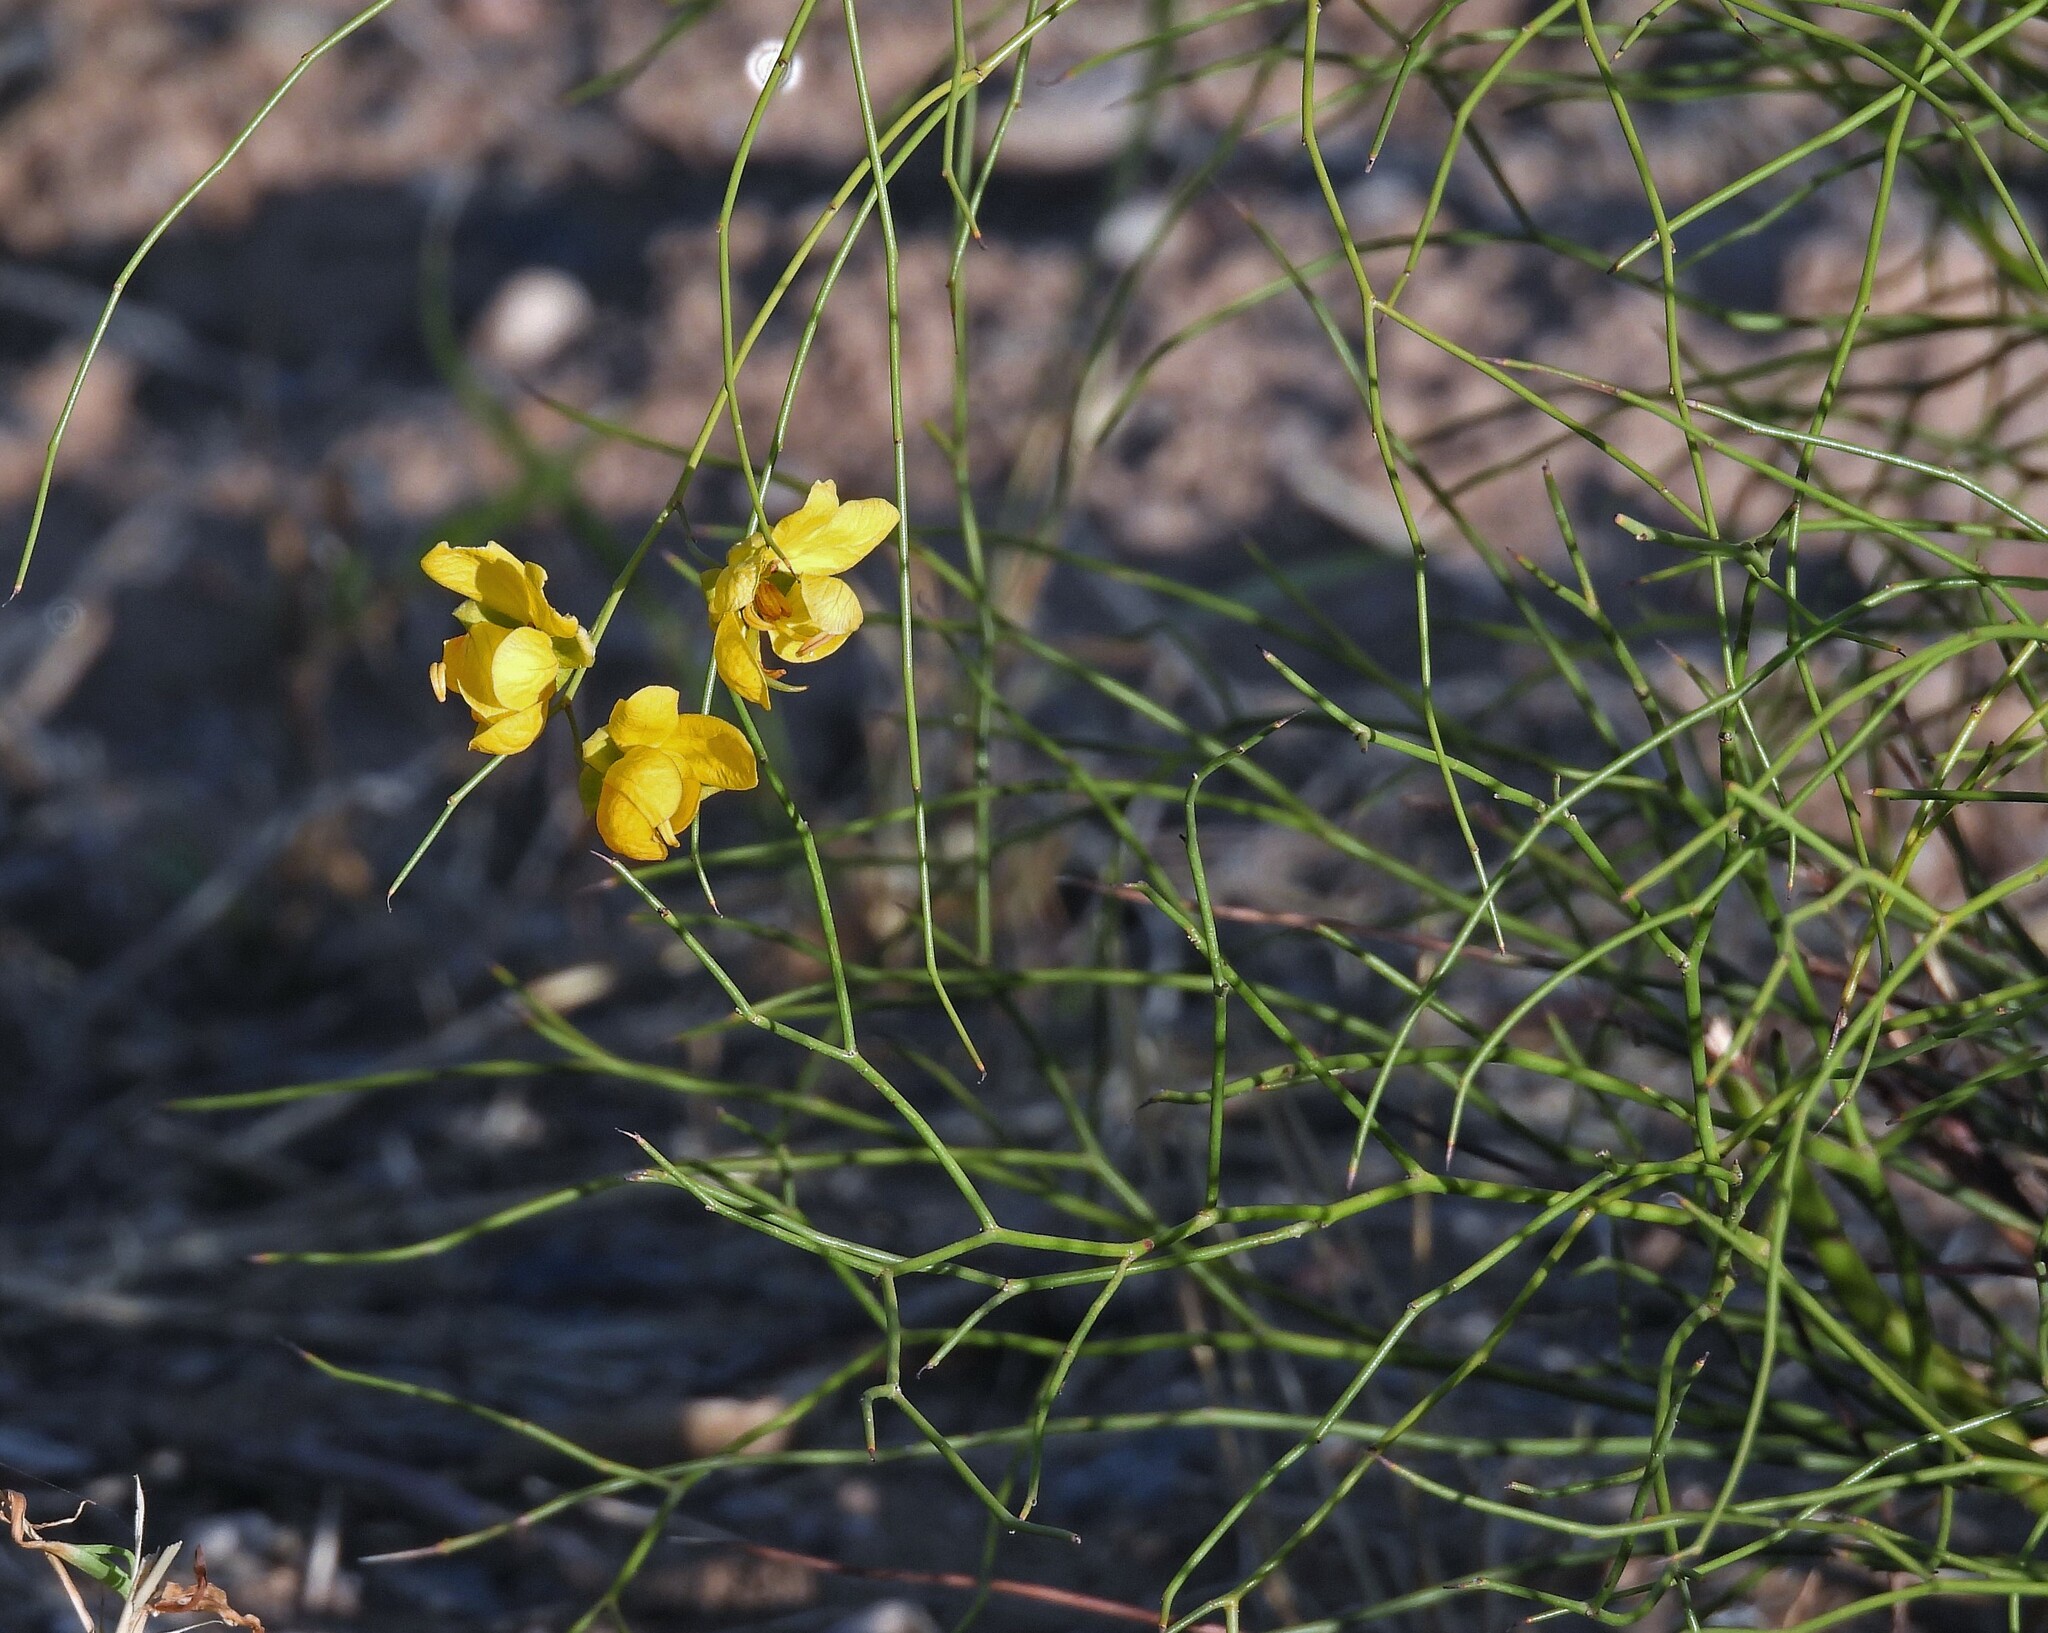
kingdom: Plantae
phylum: Tracheophyta
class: Magnoliopsida
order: Fabales
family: Fabaceae
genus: Senna
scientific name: Senna pachyrrhiza
